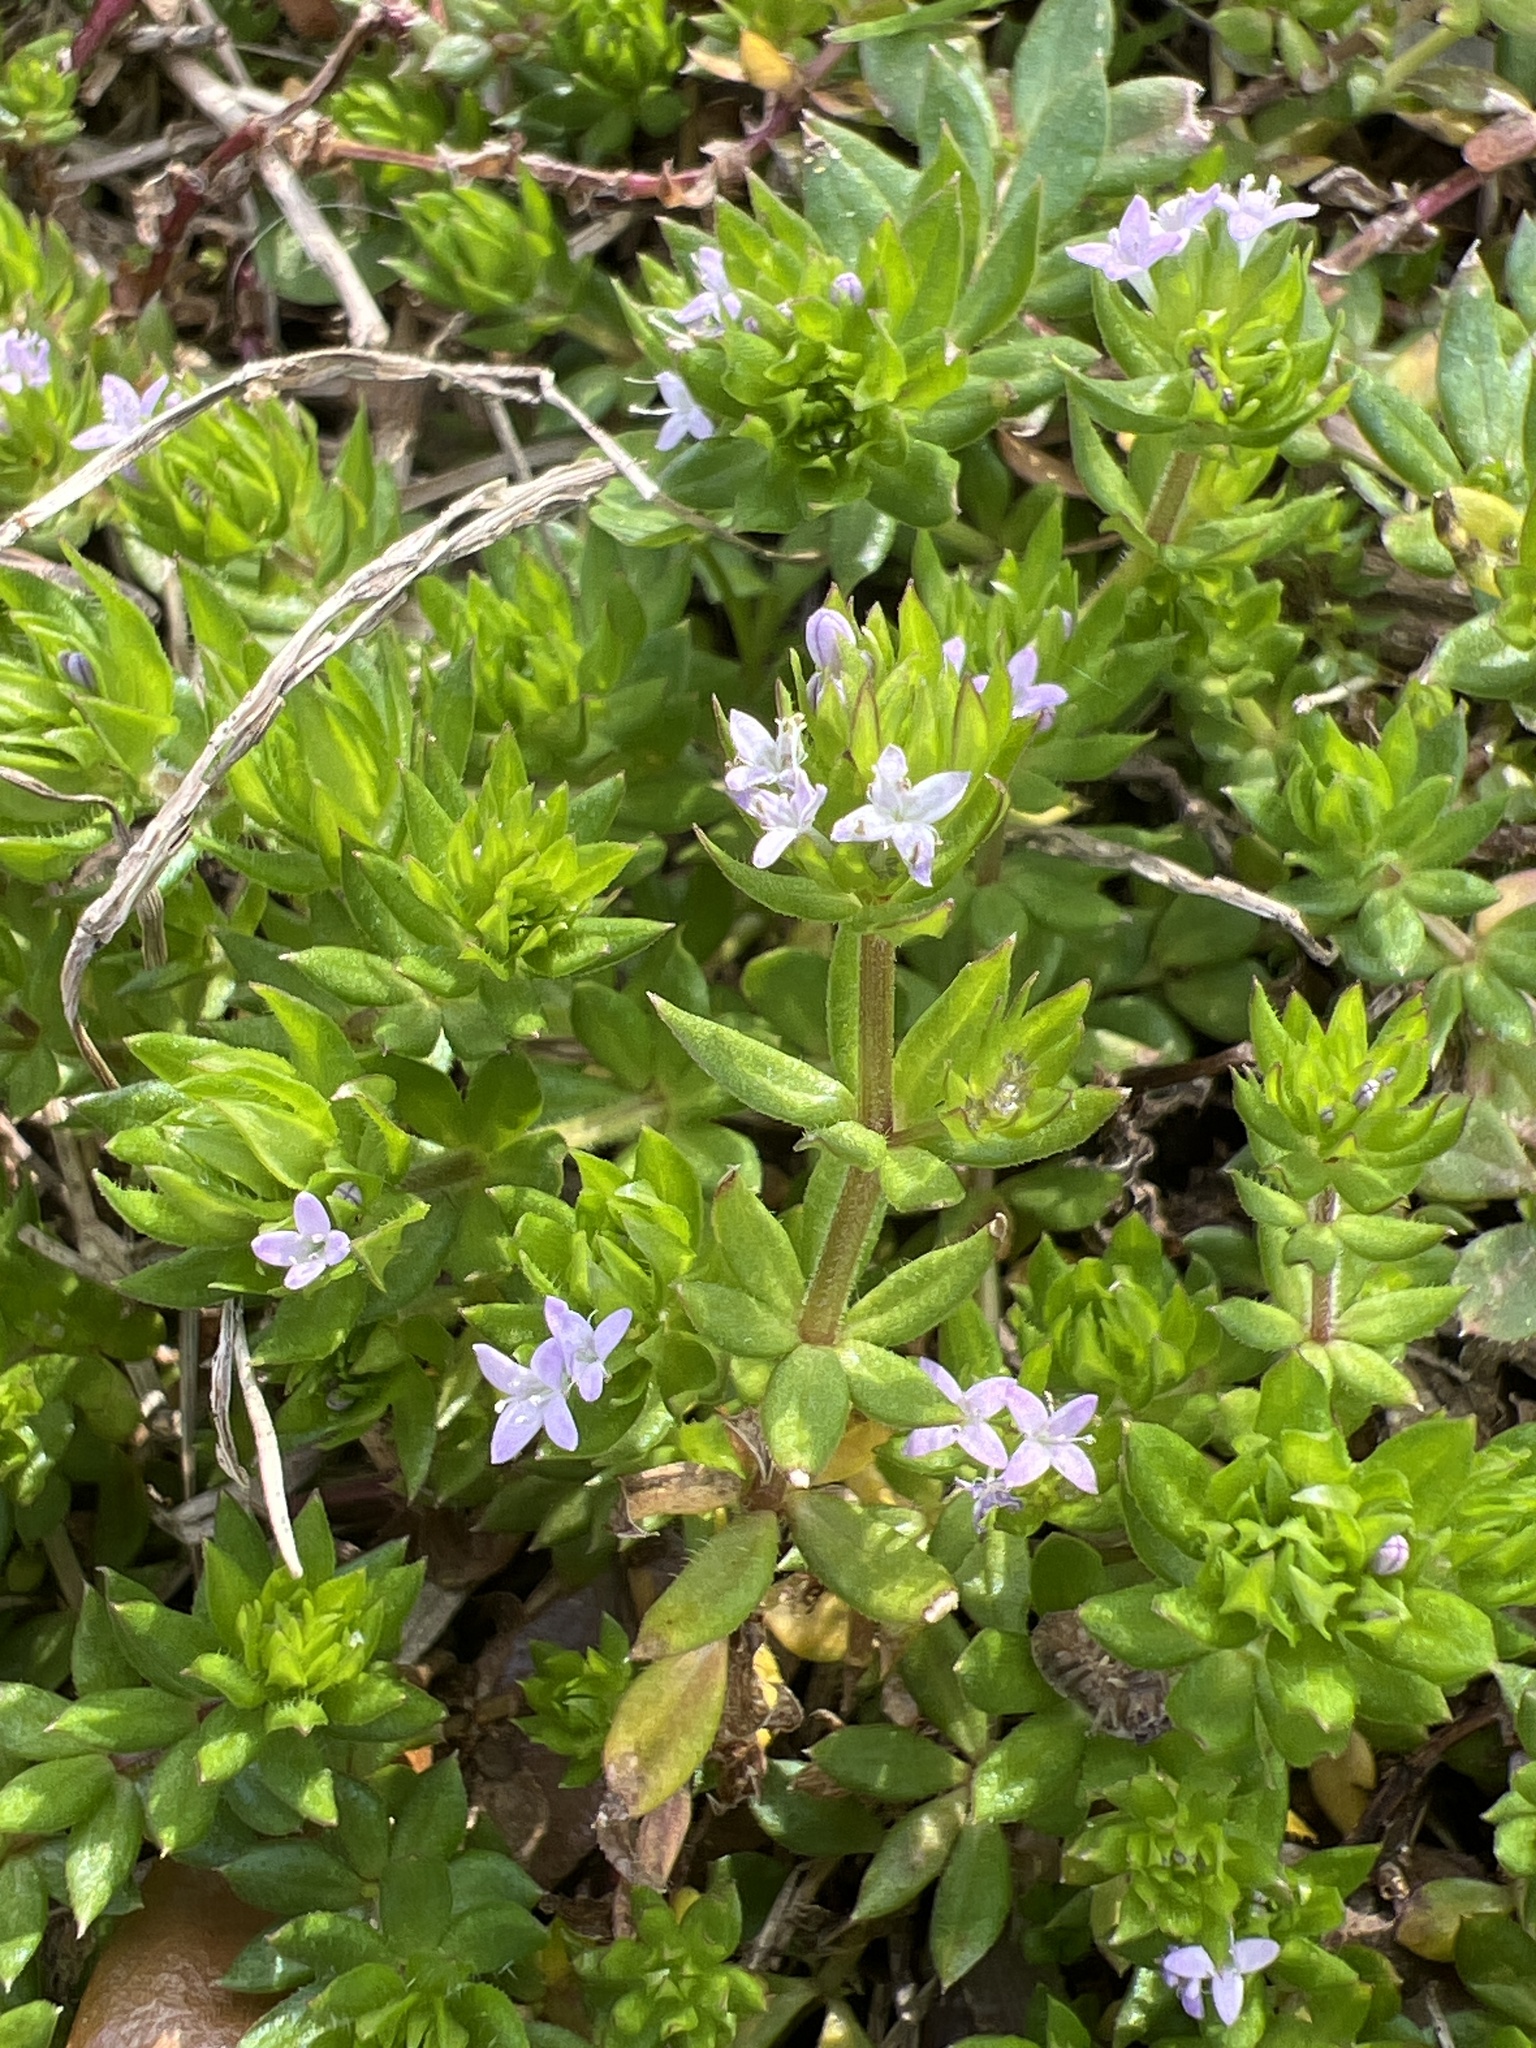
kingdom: Plantae
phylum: Tracheophyta
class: Magnoliopsida
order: Gentianales
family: Rubiaceae
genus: Sherardia
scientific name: Sherardia arvensis
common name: Field madder
